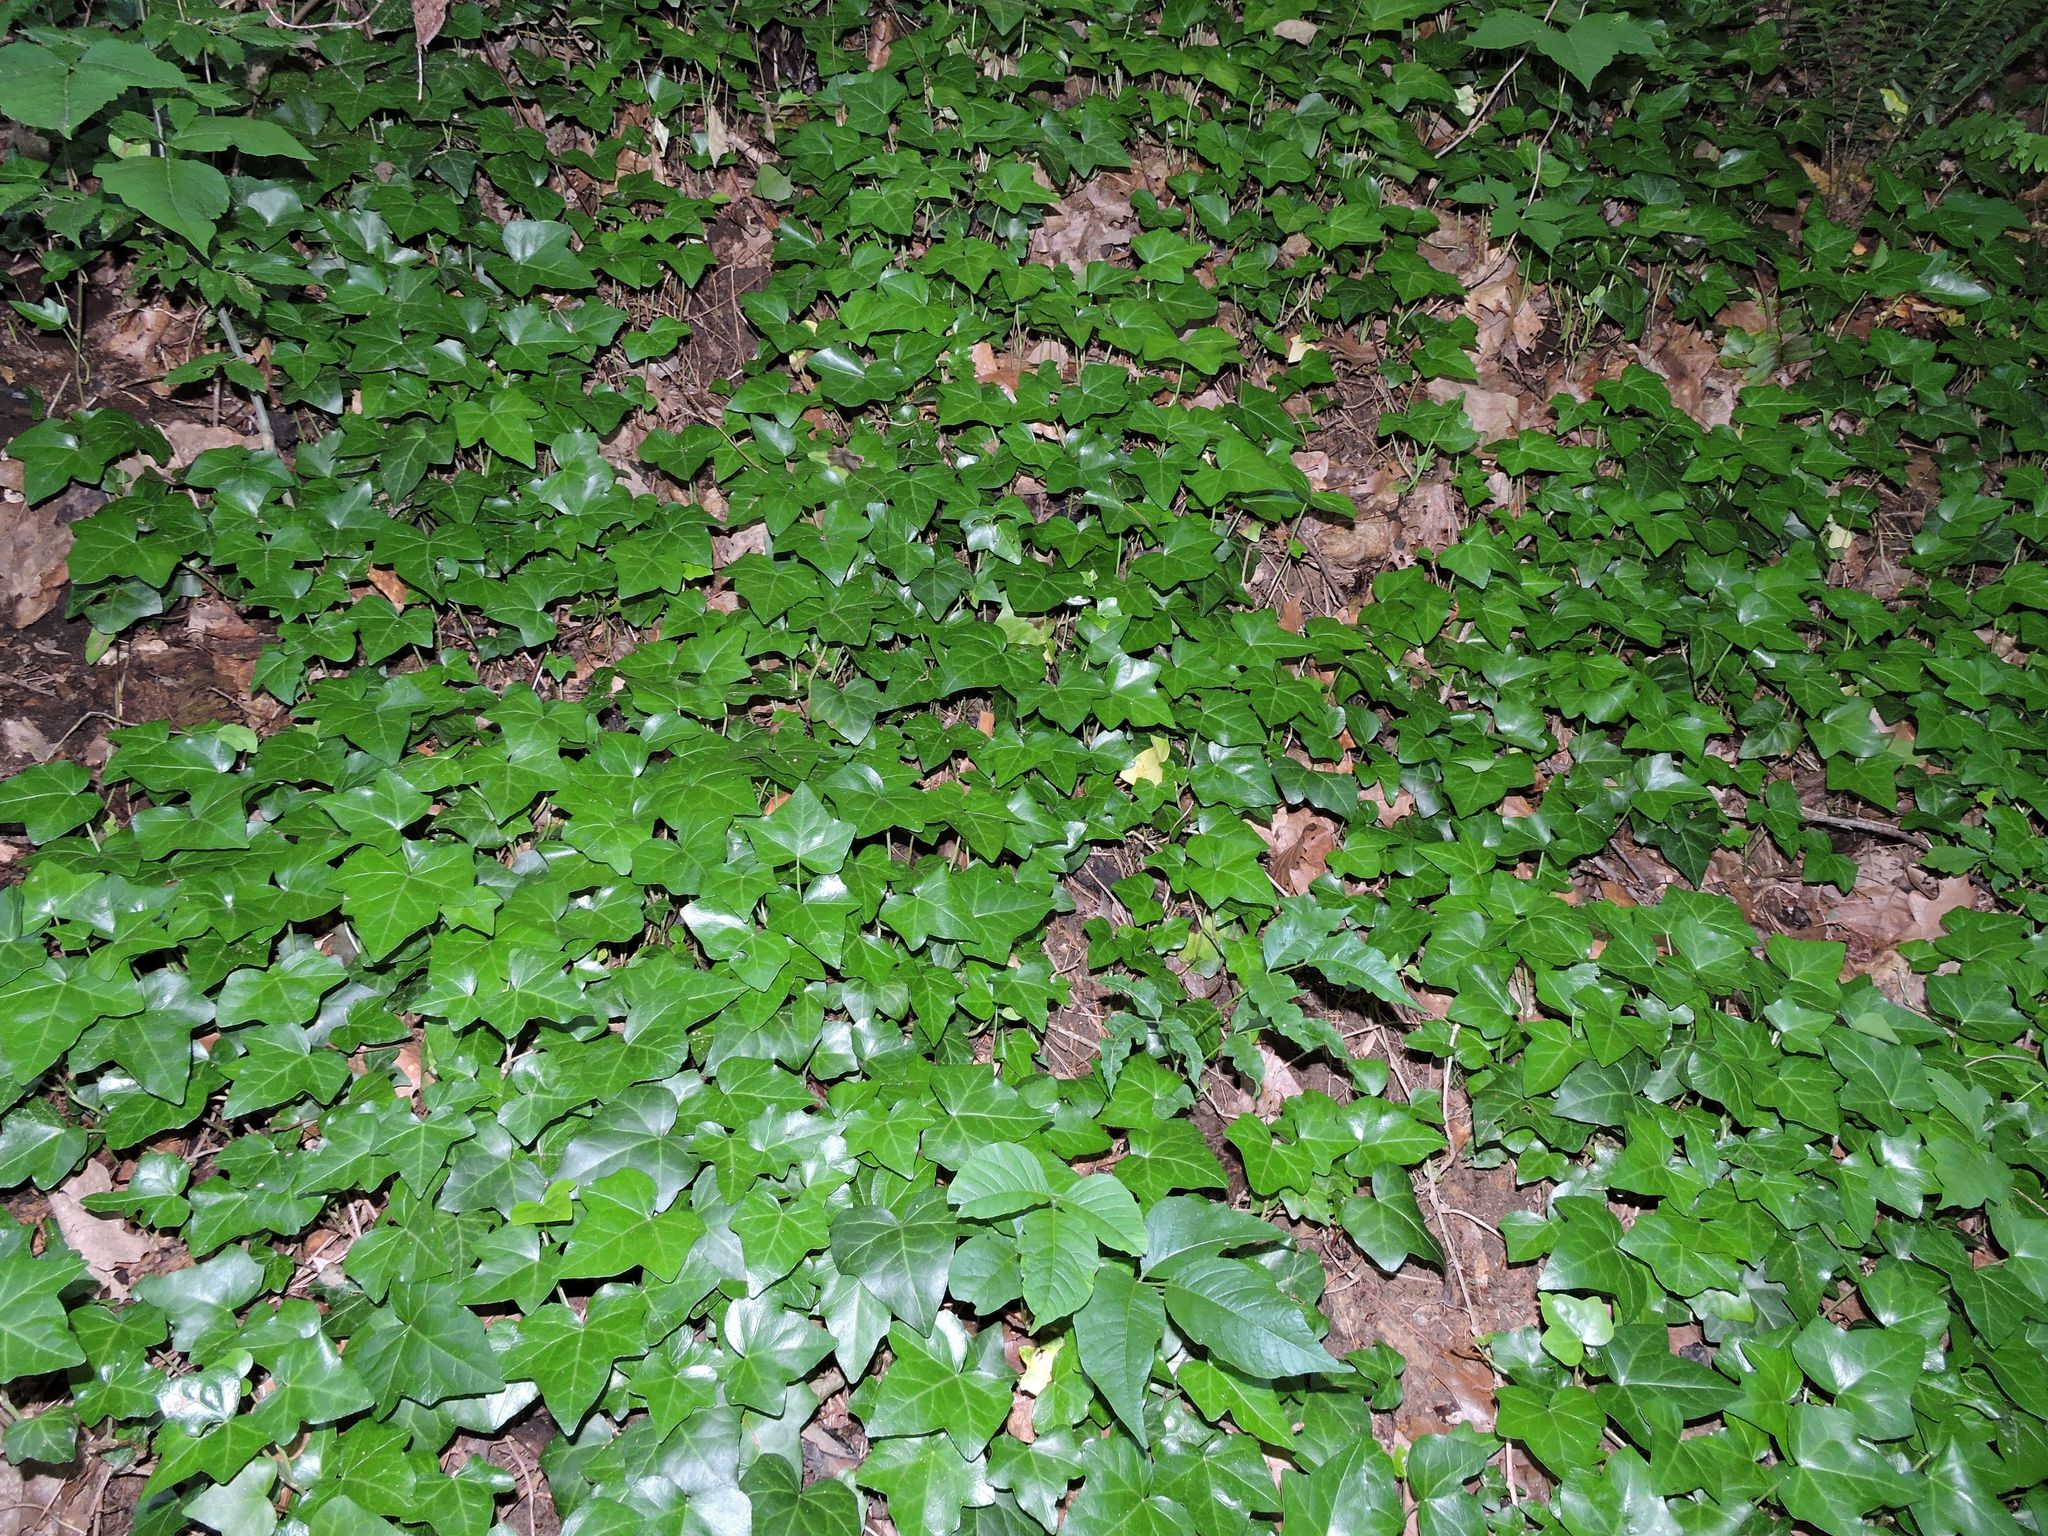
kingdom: Plantae
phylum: Tracheophyta
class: Magnoliopsida
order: Apiales
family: Araliaceae
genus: Hedera
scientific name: Hedera helix
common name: Ivy
